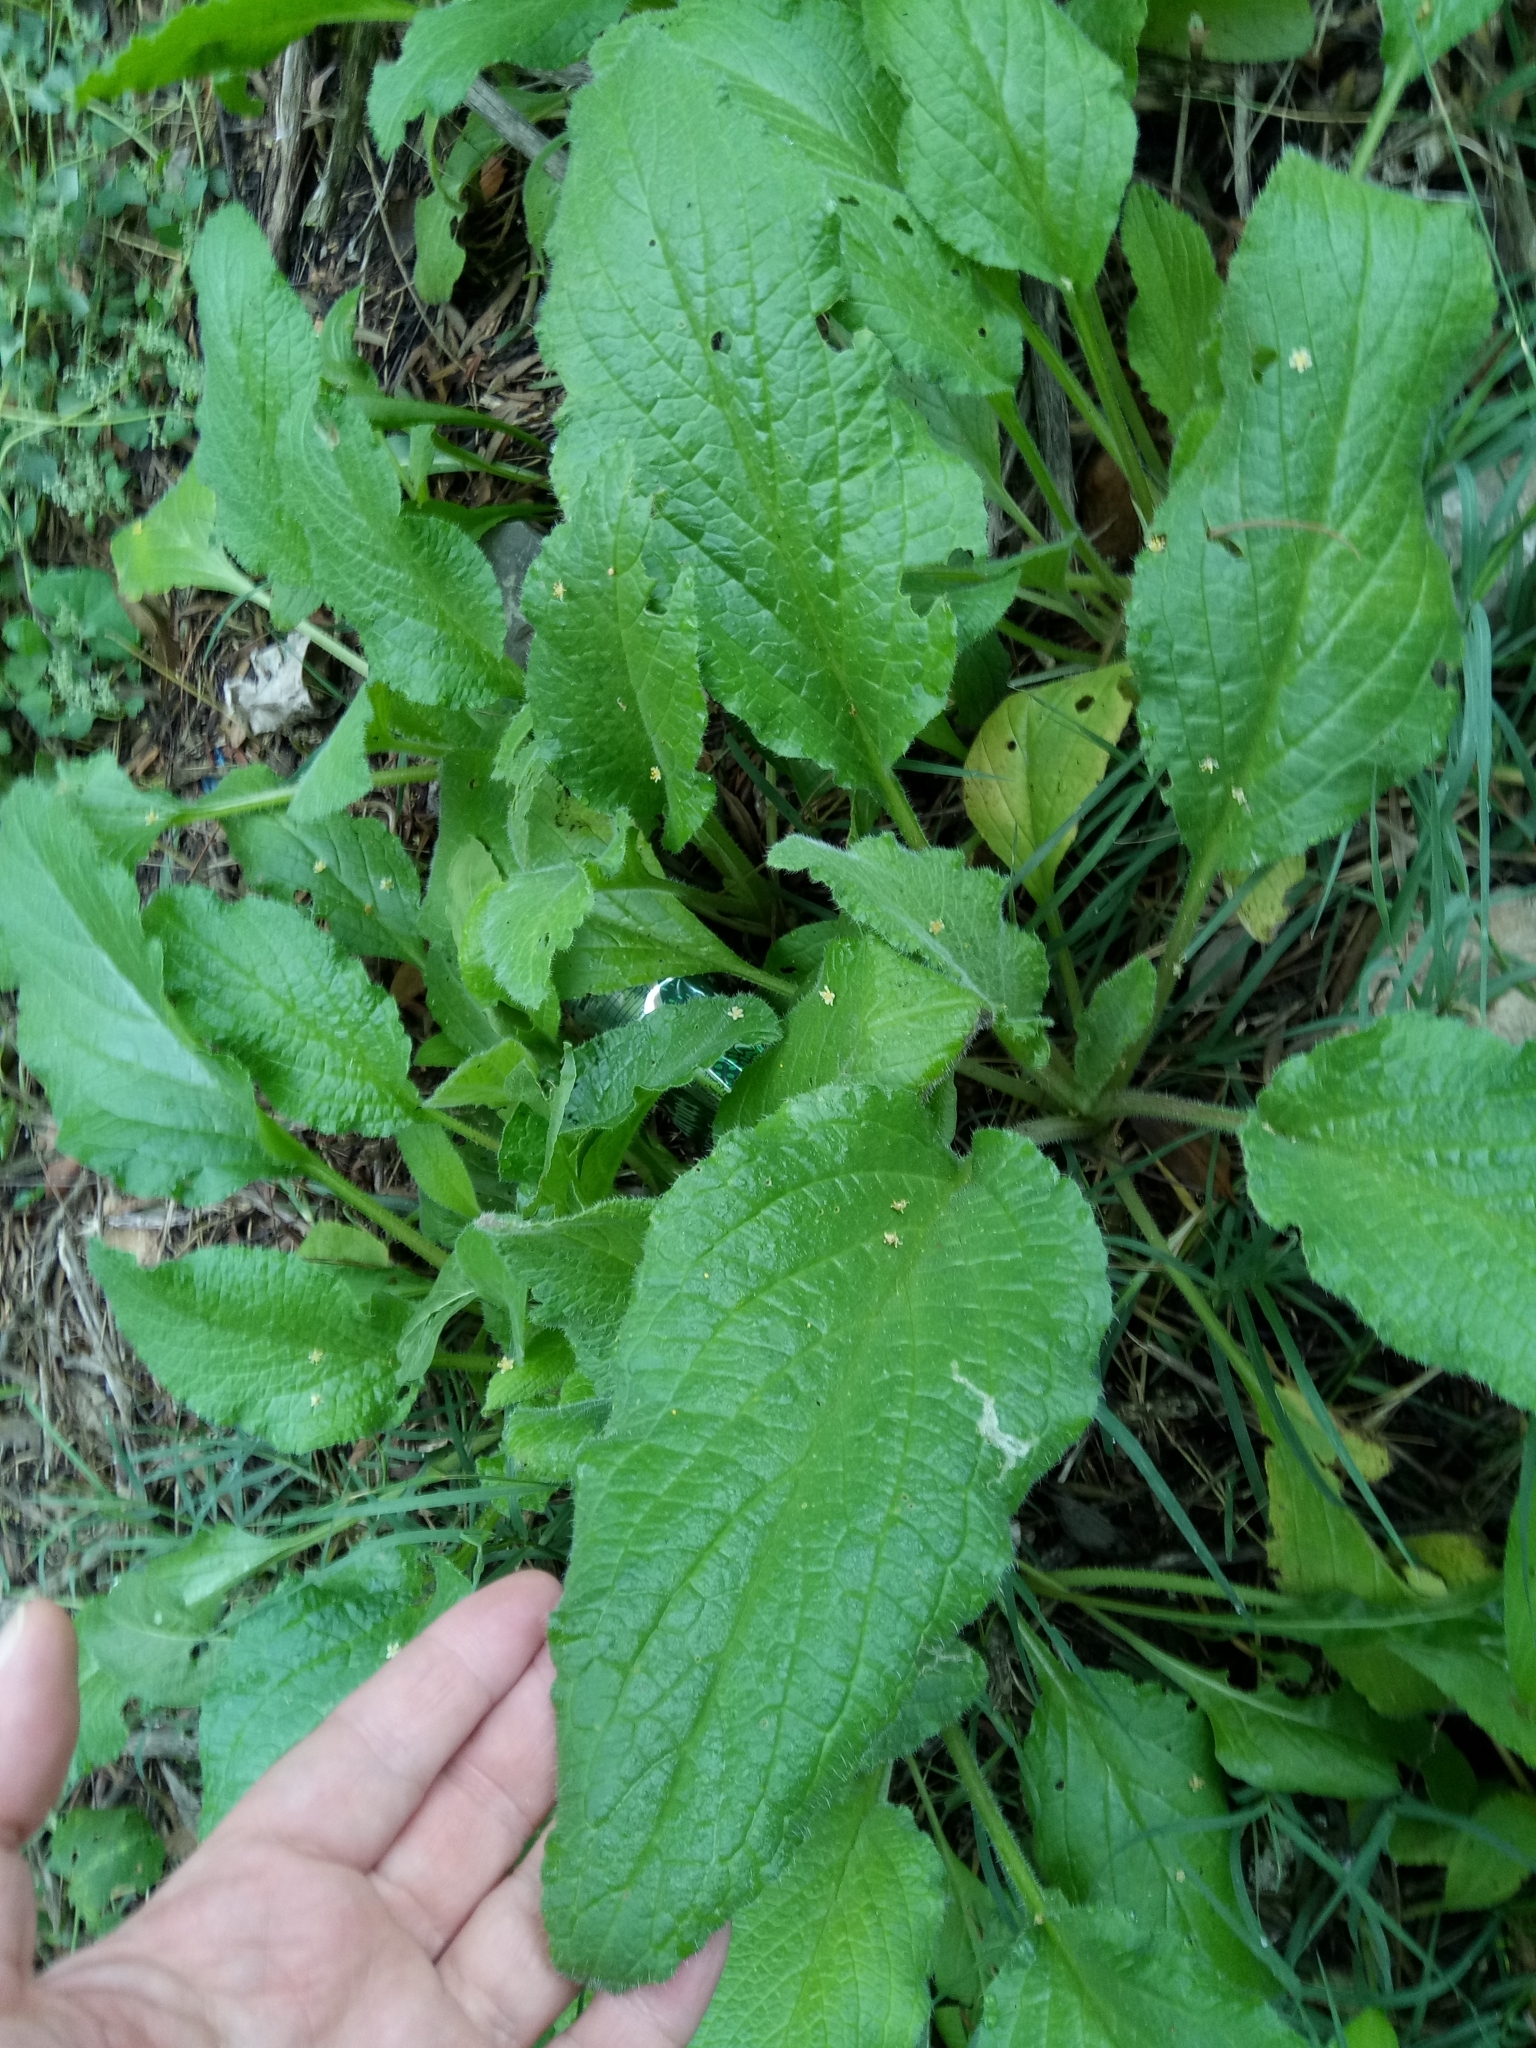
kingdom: Plantae
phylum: Tracheophyta
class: Magnoliopsida
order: Boraginales
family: Boraginaceae
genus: Borago
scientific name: Borago officinalis
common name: Borage
